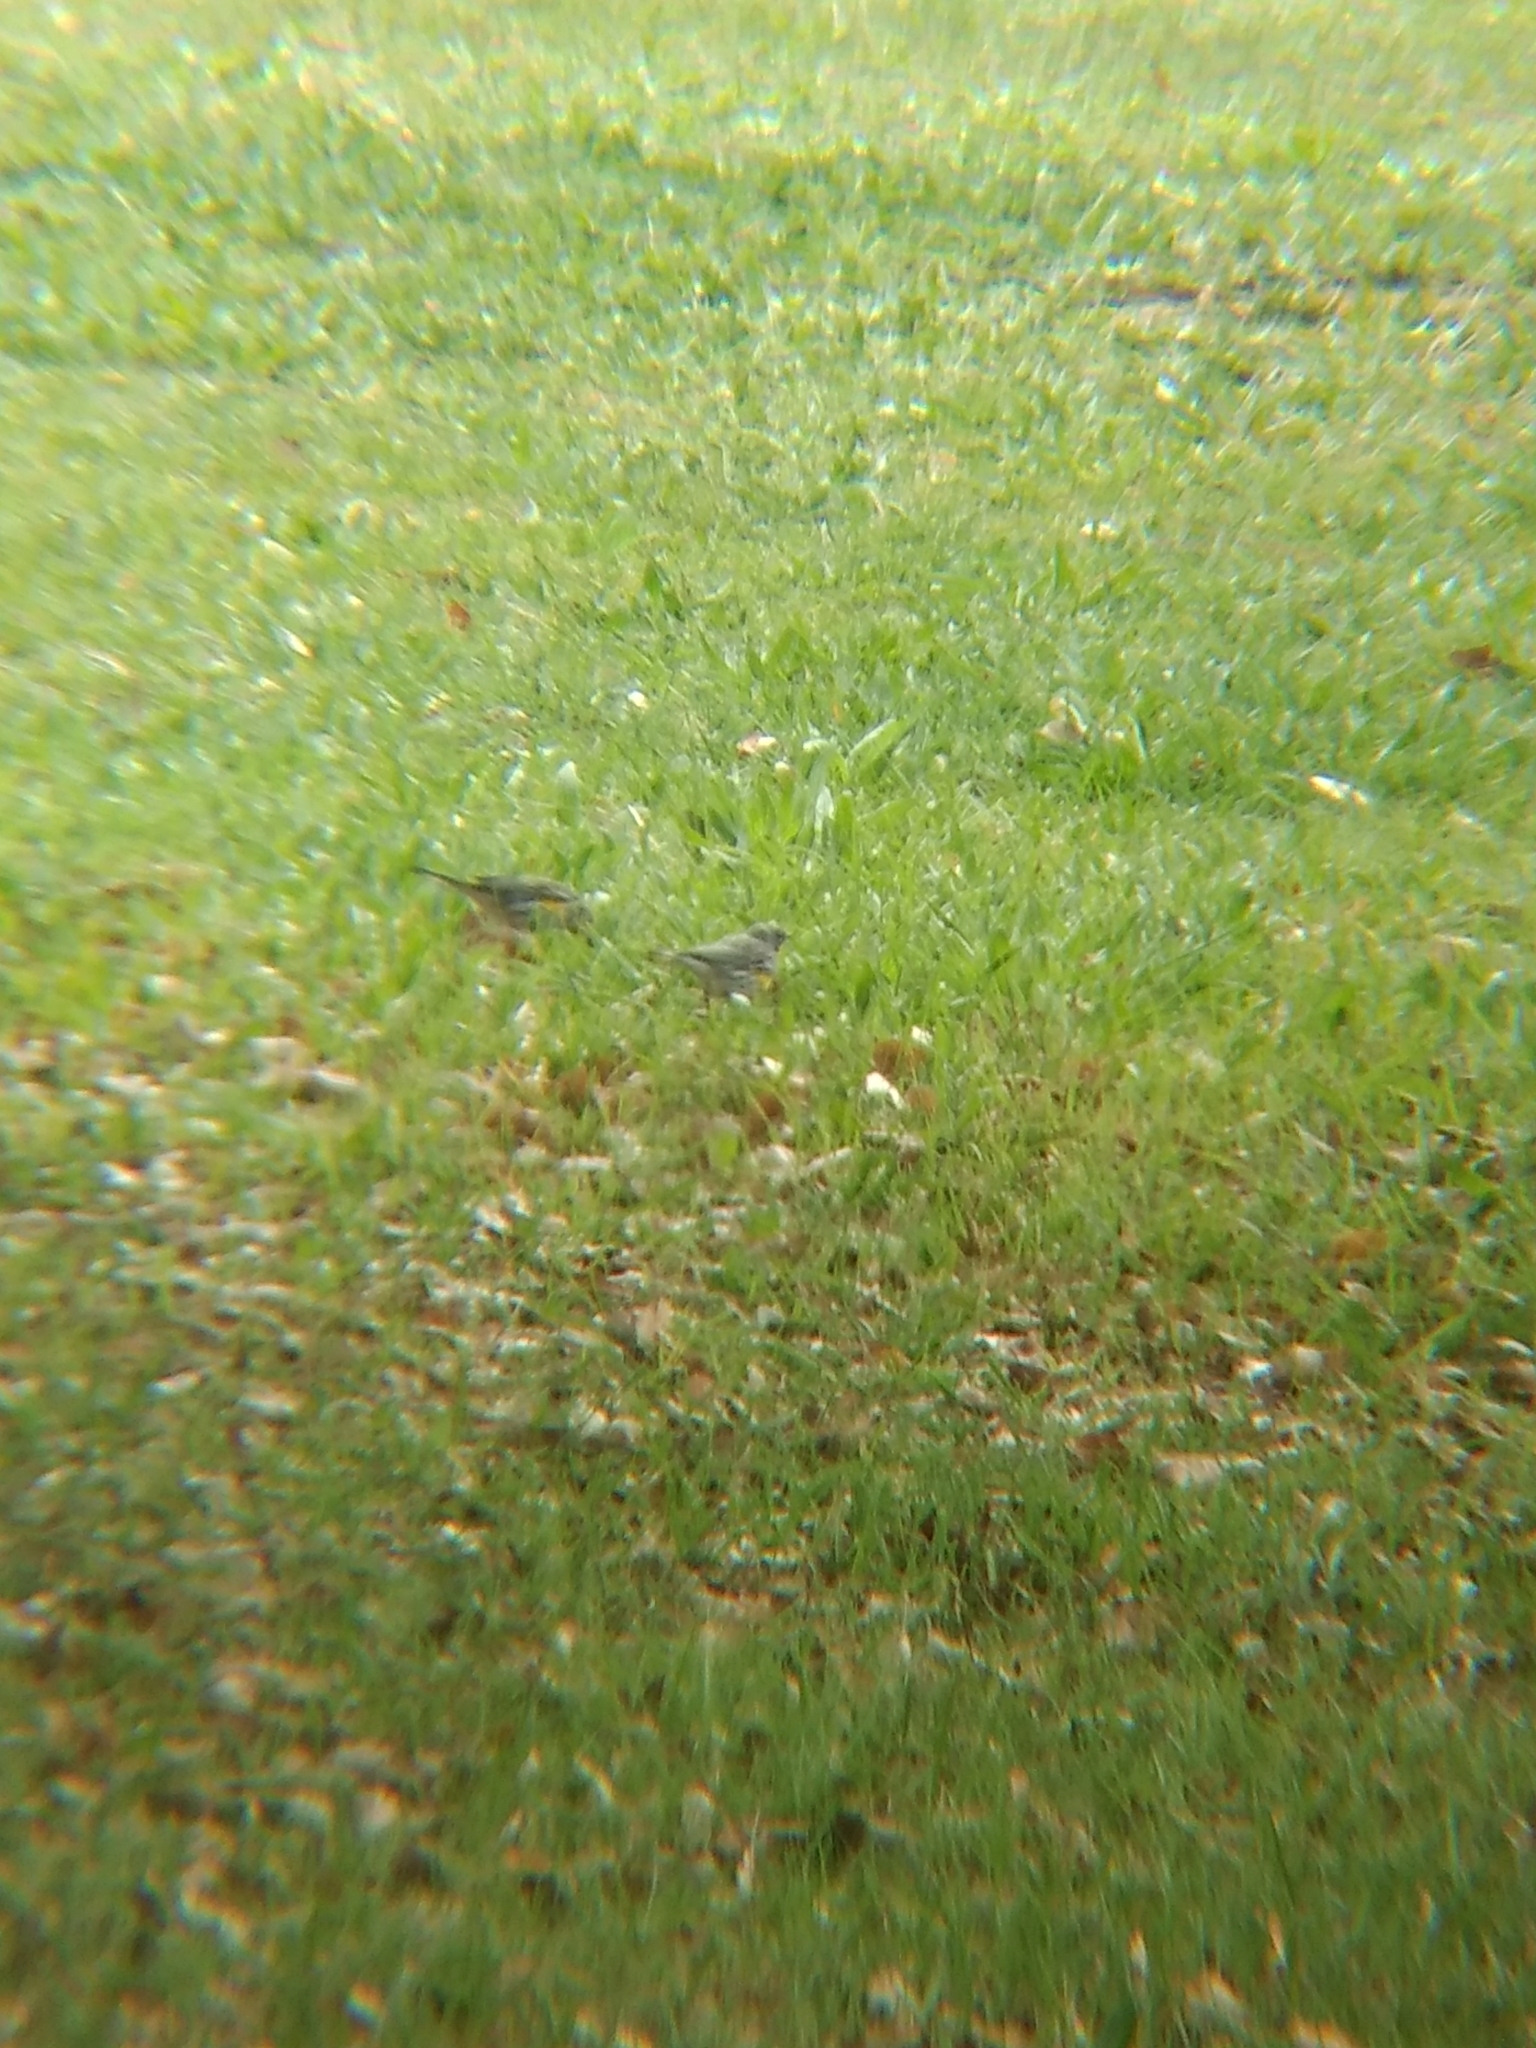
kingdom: Animalia
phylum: Chordata
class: Aves
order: Passeriformes
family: Parulidae
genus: Setophaga
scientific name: Setophaga coronata
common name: Myrtle warbler
